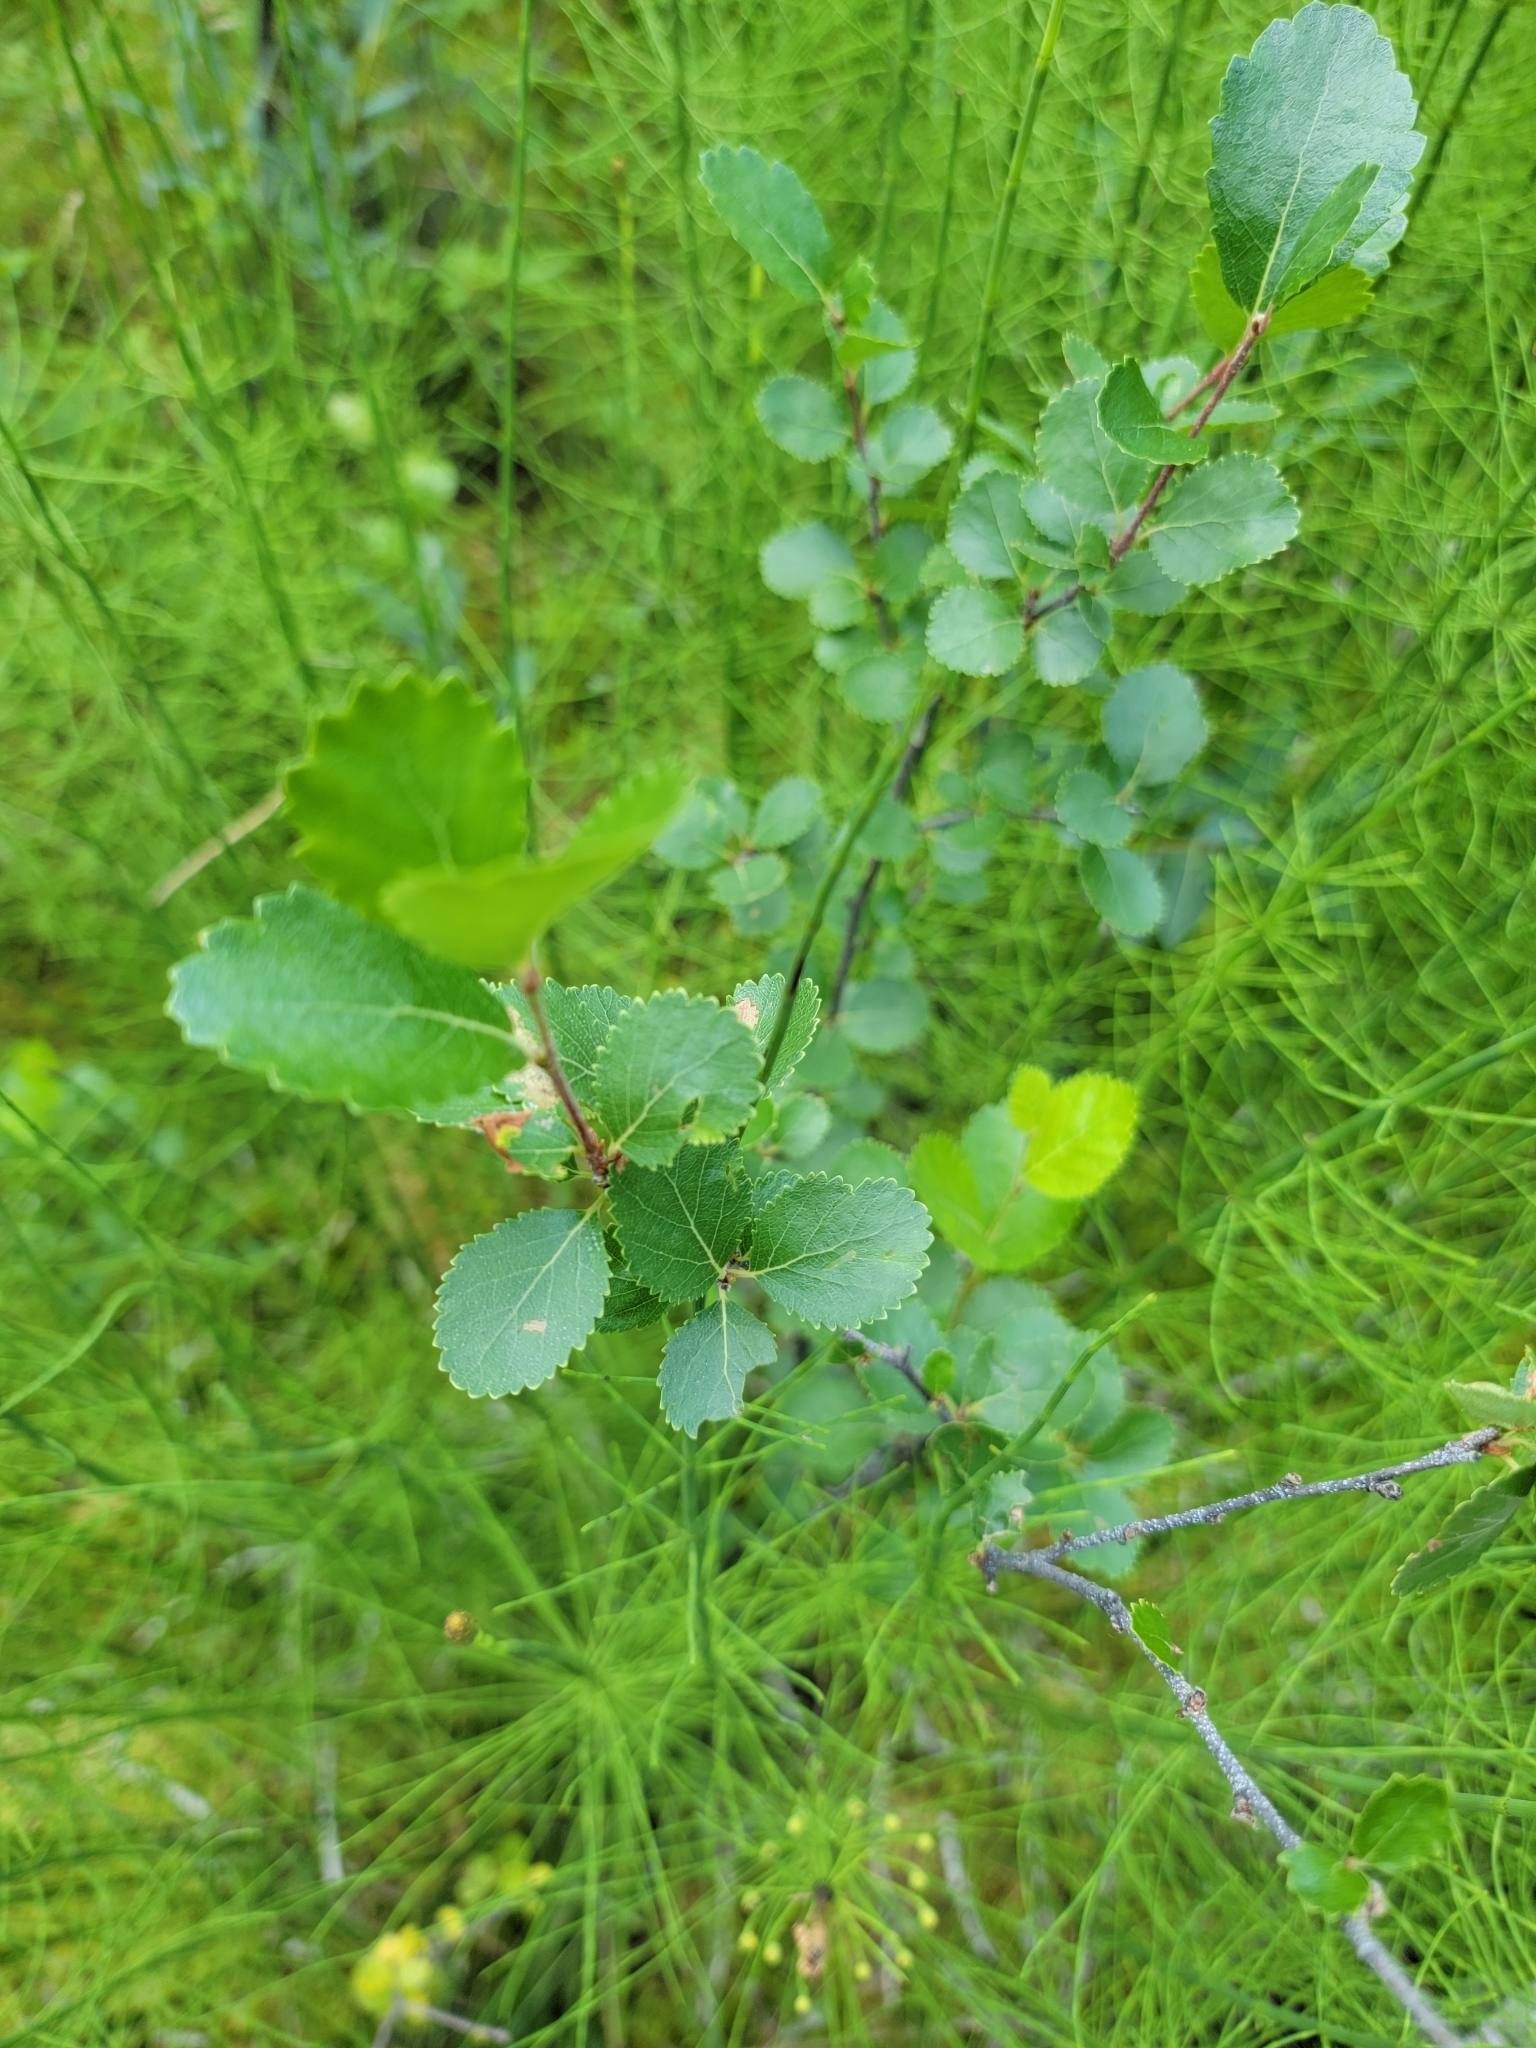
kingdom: Plantae
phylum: Tracheophyta
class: Magnoliopsida
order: Fagales
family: Betulaceae
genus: Betula
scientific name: Betula pumila
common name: Bog birch
